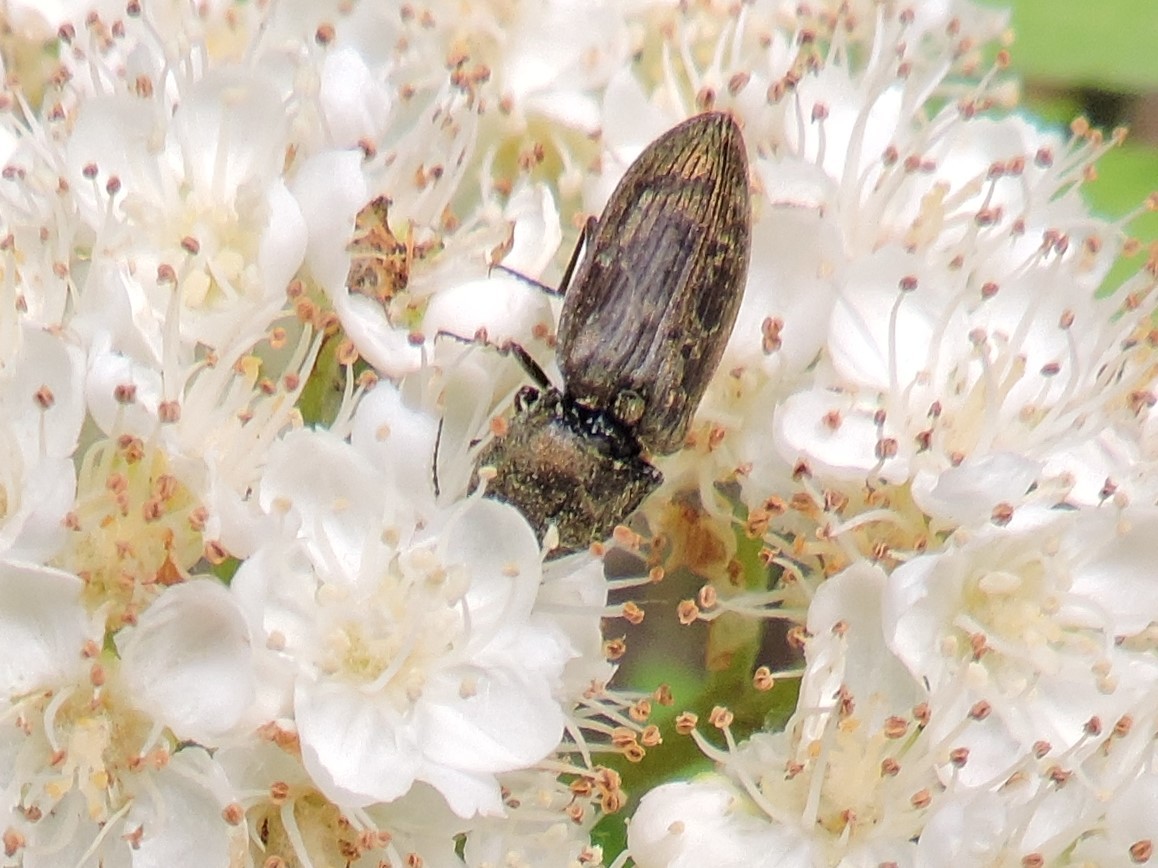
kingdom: Animalia
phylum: Arthropoda
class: Insecta
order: Coleoptera
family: Elateridae
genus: Prosternon
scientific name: Prosternon tessellatum
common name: Chequered click beetle
